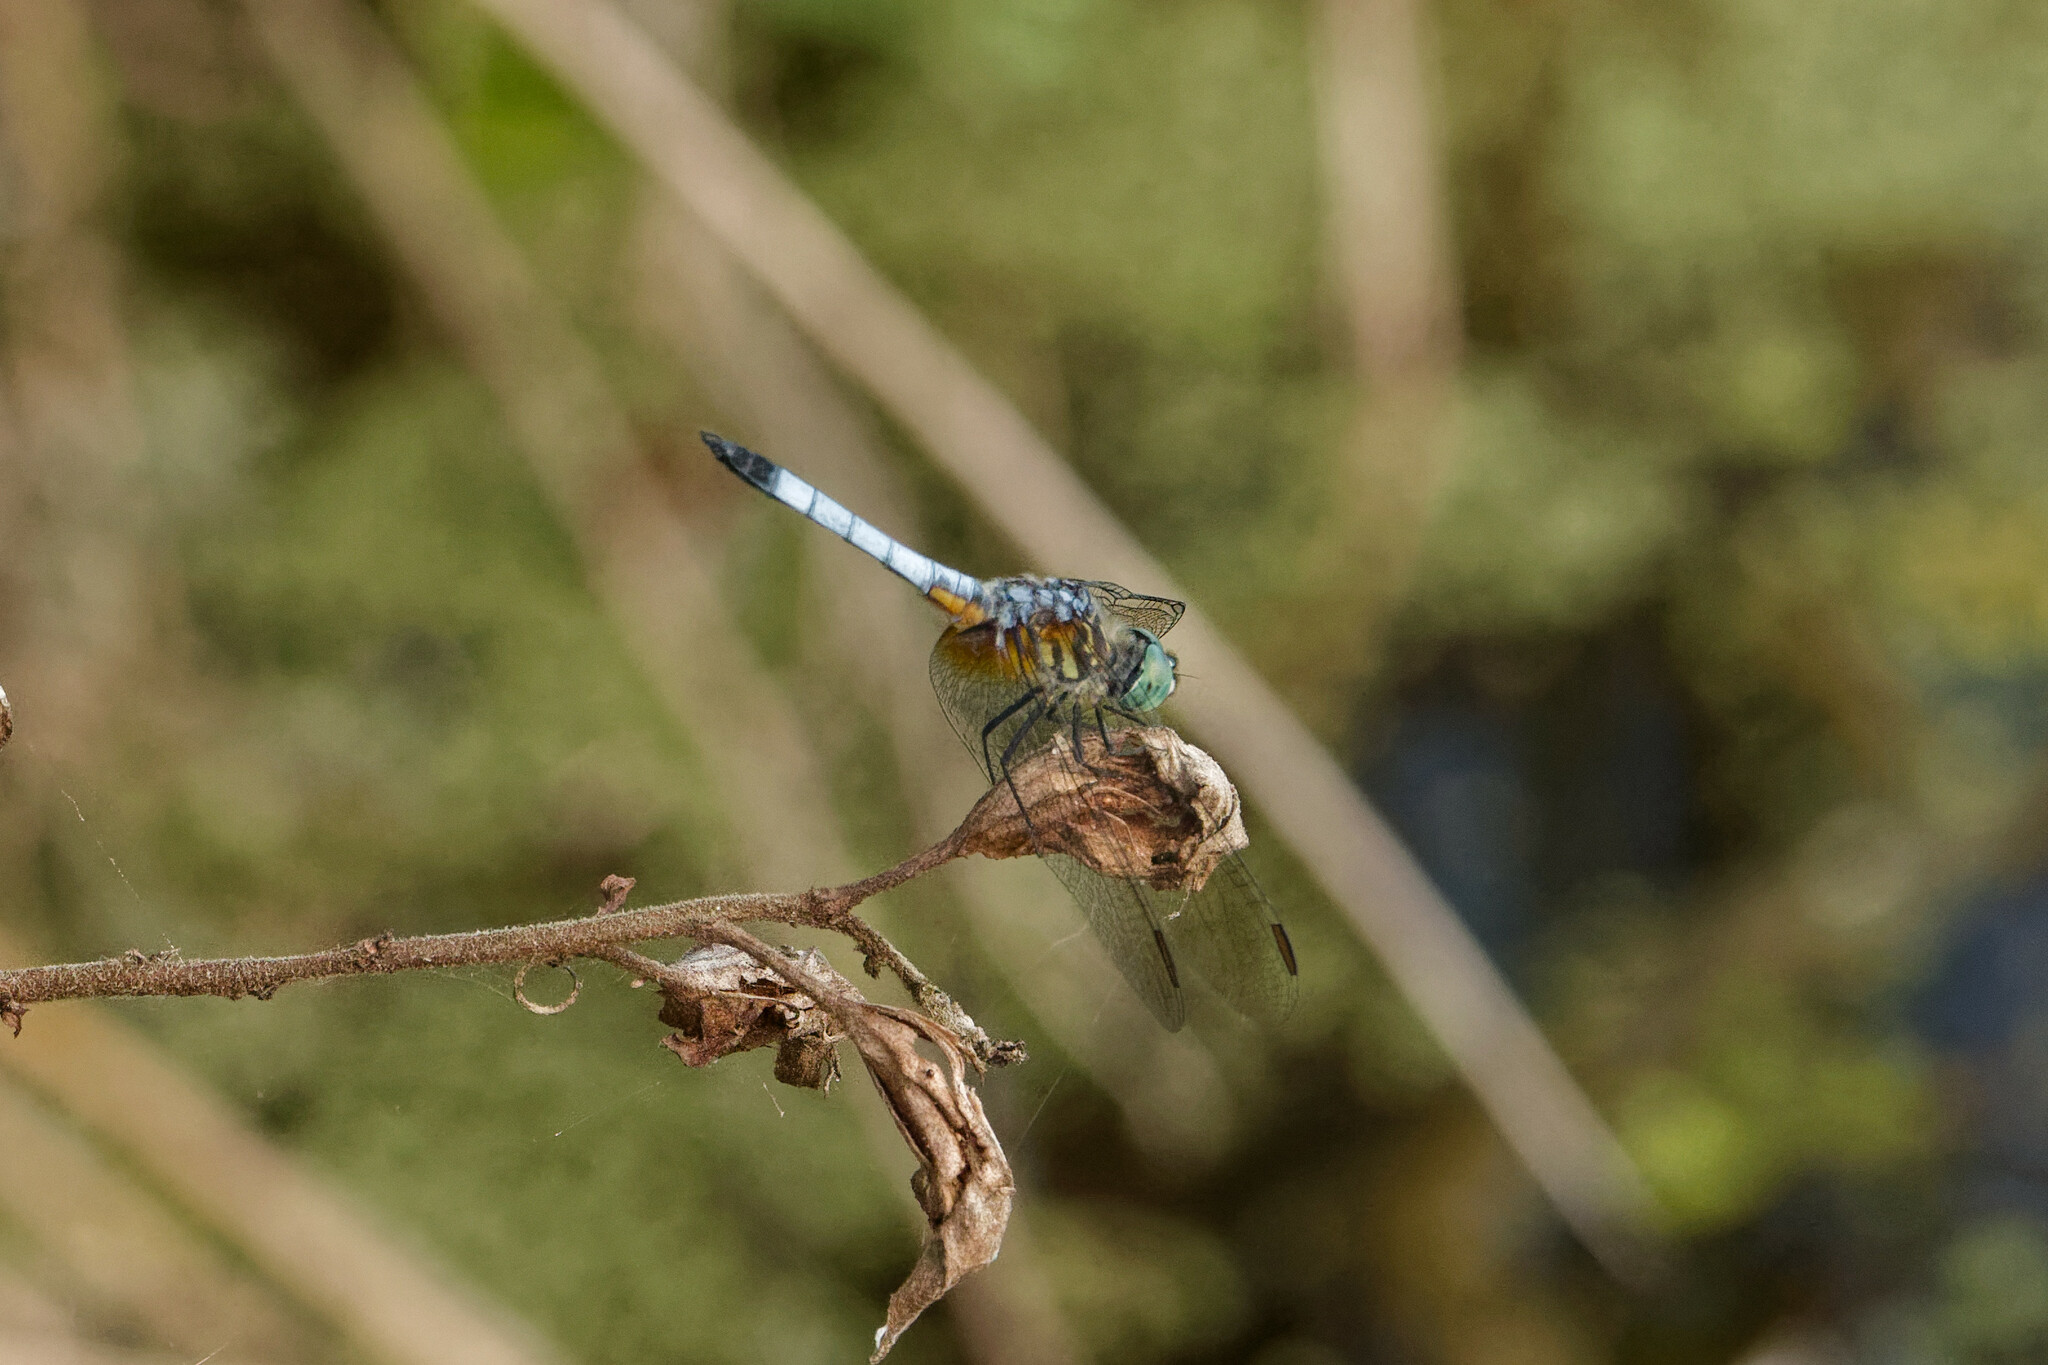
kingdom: Animalia
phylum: Arthropoda
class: Insecta
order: Odonata
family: Libellulidae
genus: Pachydiplax
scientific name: Pachydiplax longipennis
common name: Blue dasher
